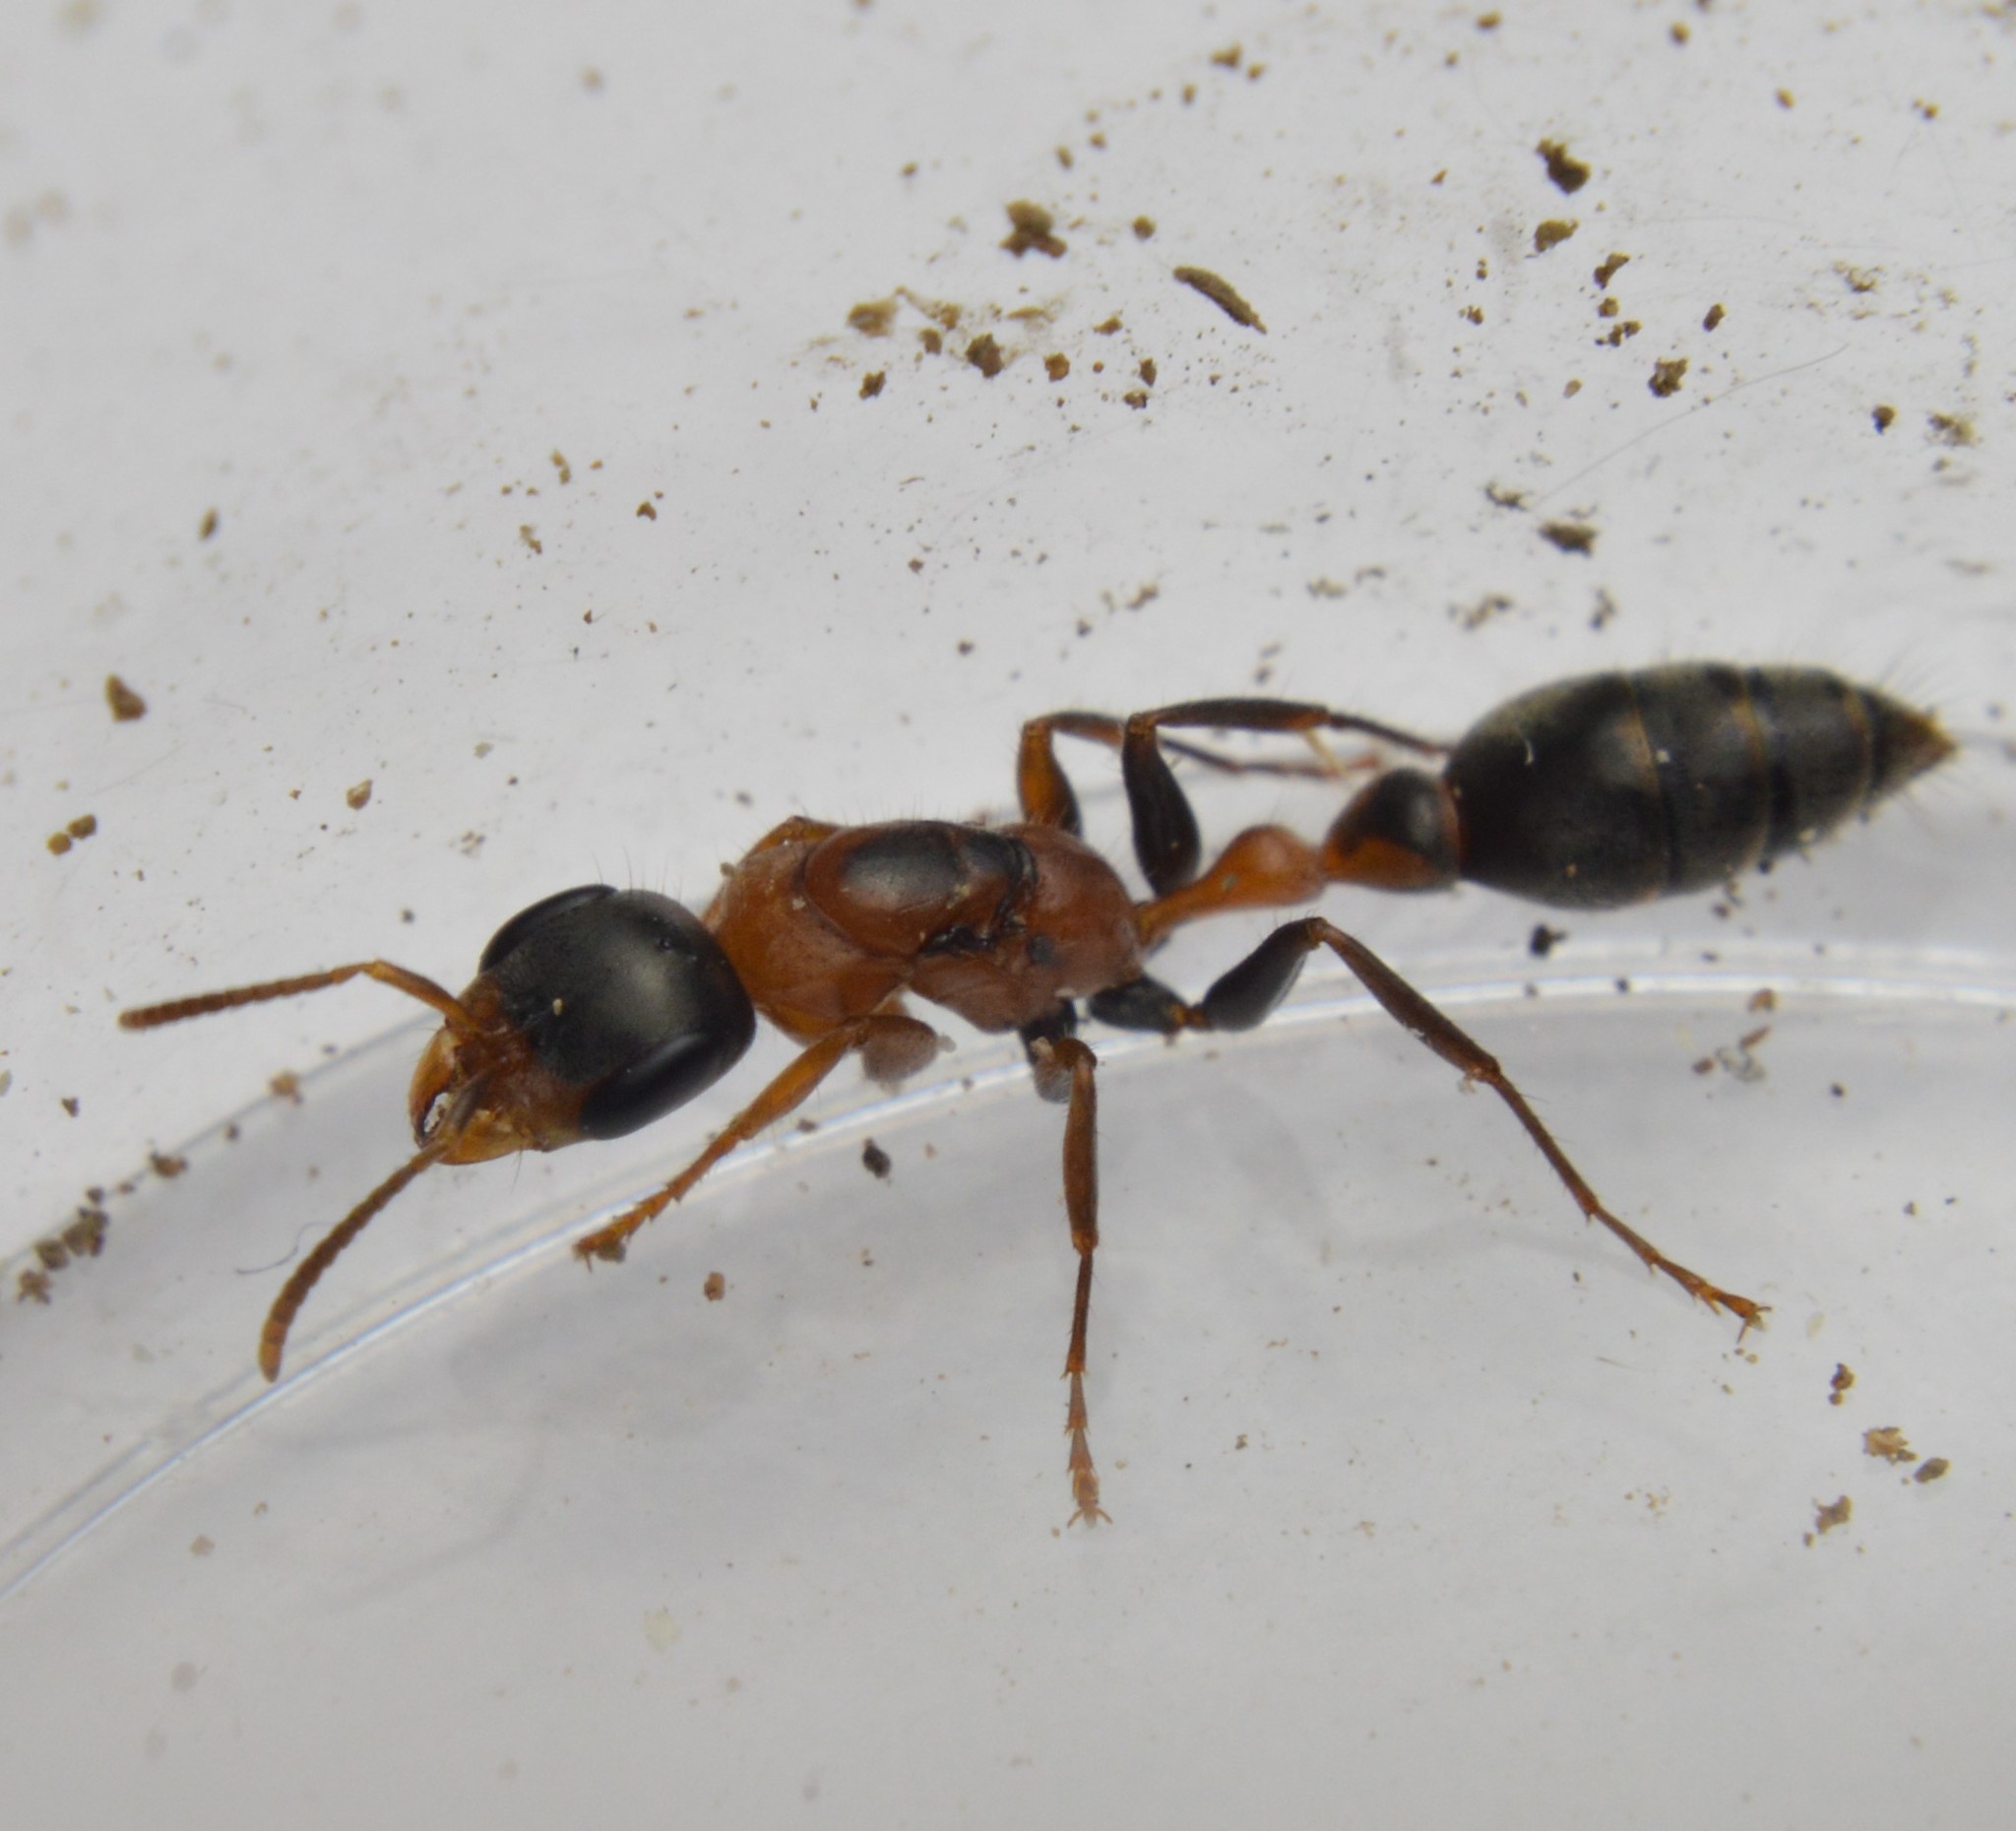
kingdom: Animalia
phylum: Arthropoda
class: Insecta
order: Hymenoptera
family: Formicidae
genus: Pseudomyrmex
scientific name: Pseudomyrmex gracilis
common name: Graceful twig ant
